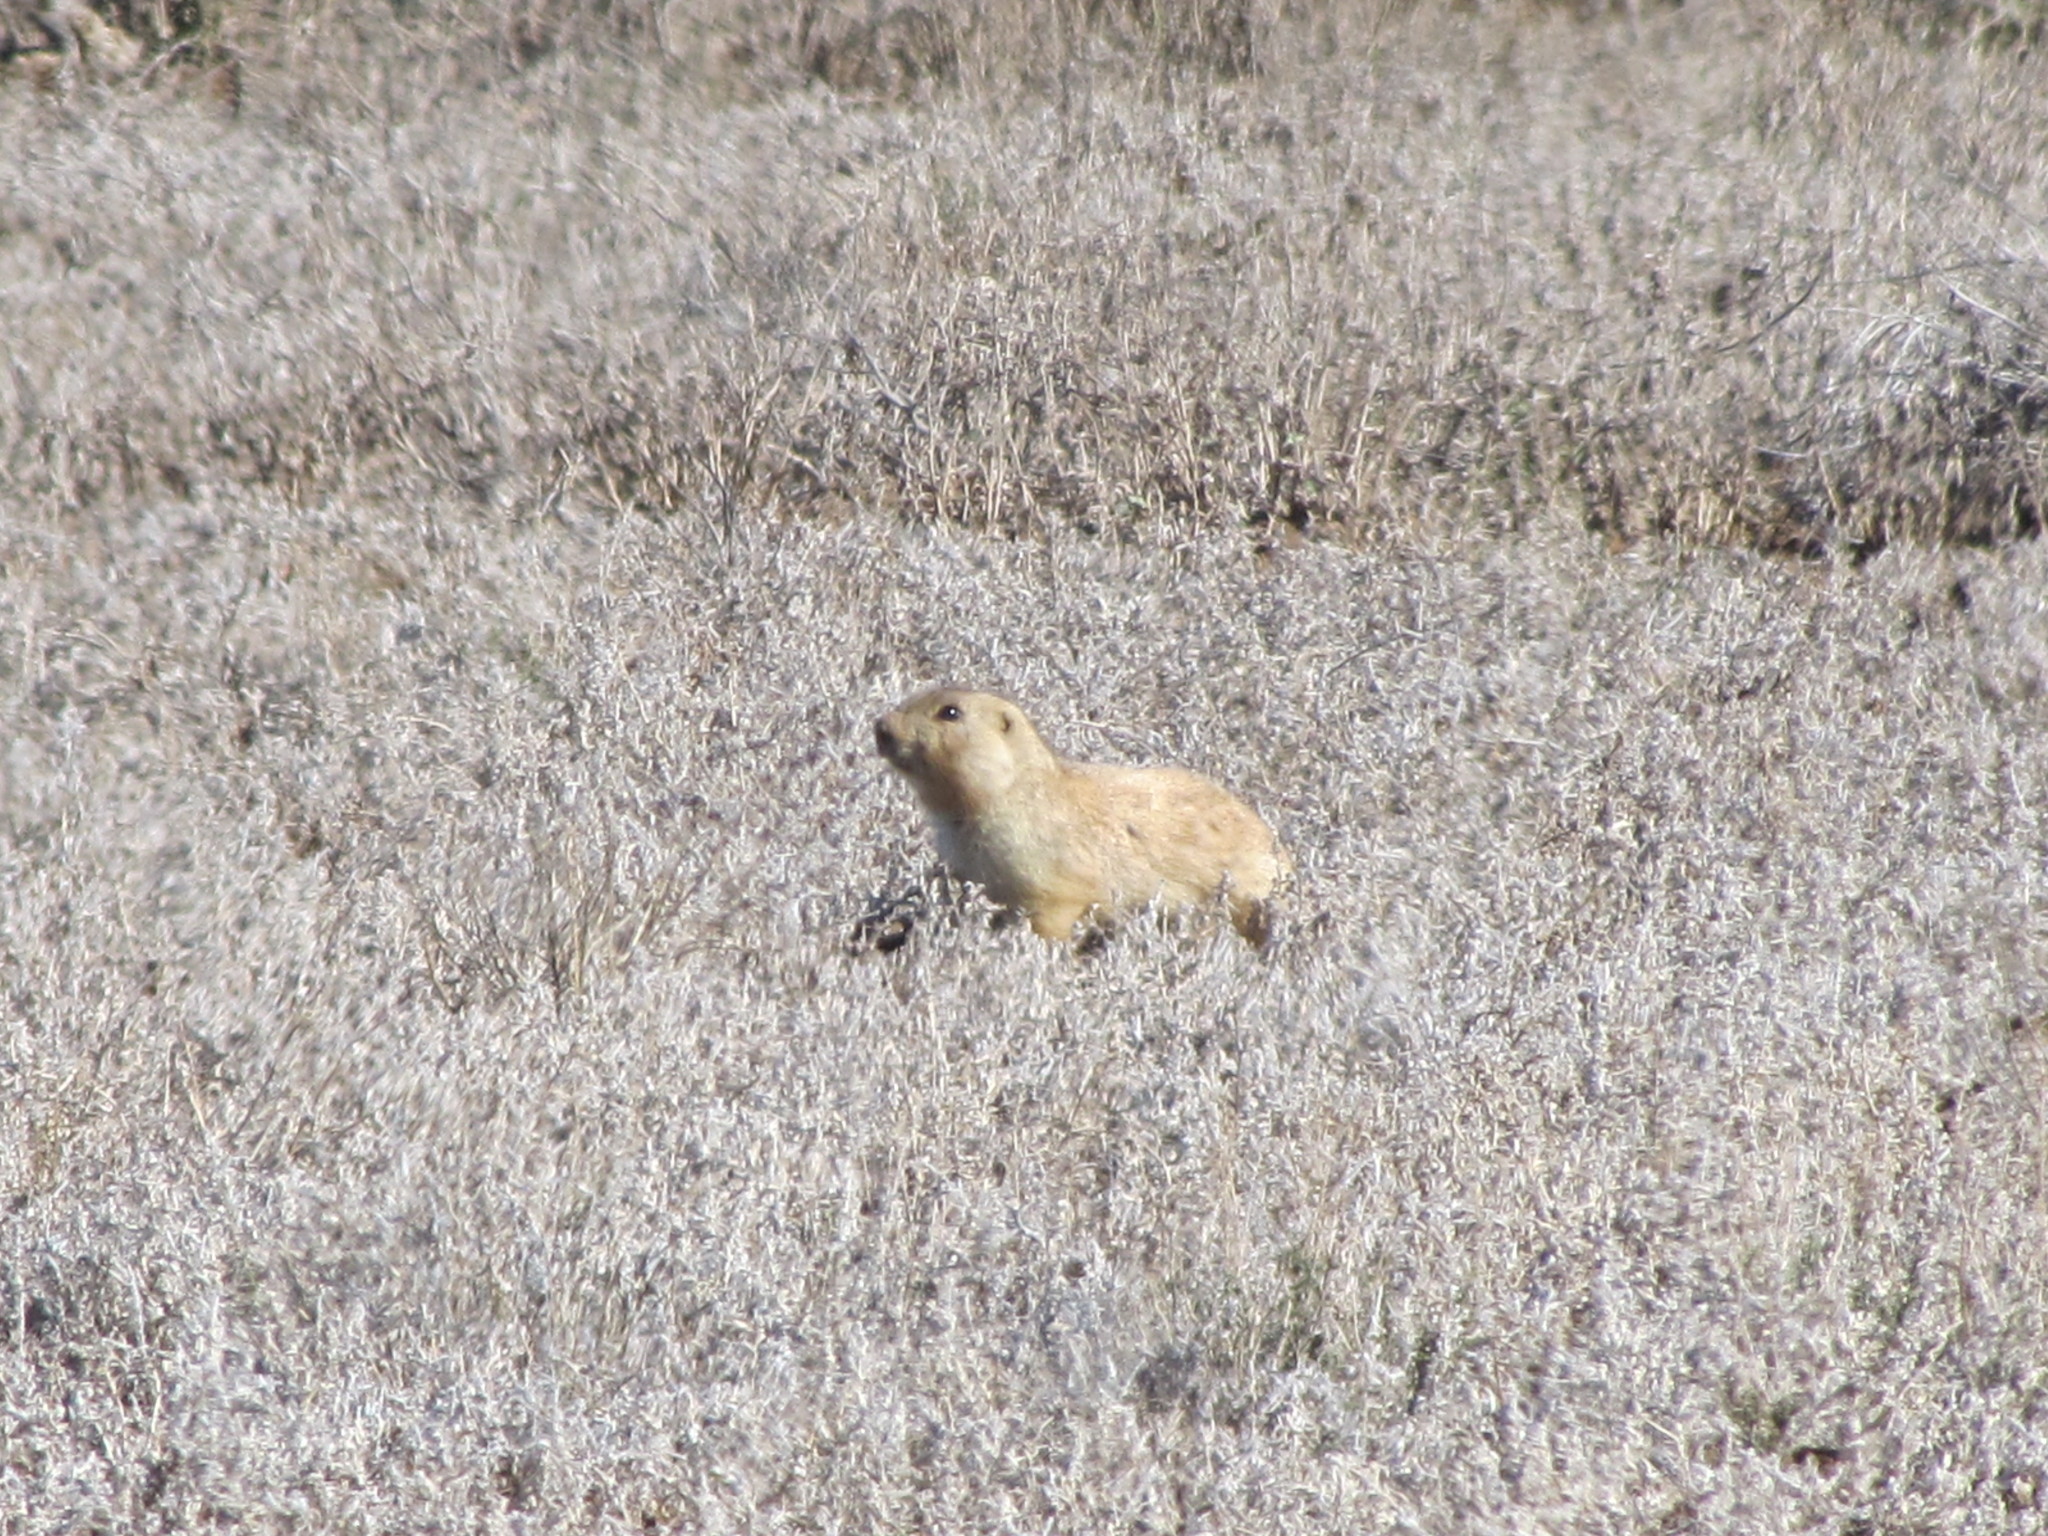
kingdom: Animalia
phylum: Chordata
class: Mammalia
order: Rodentia
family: Sciuridae
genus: Cynomys
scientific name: Cynomys gunnisoni
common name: Gunnison's prairie dog
